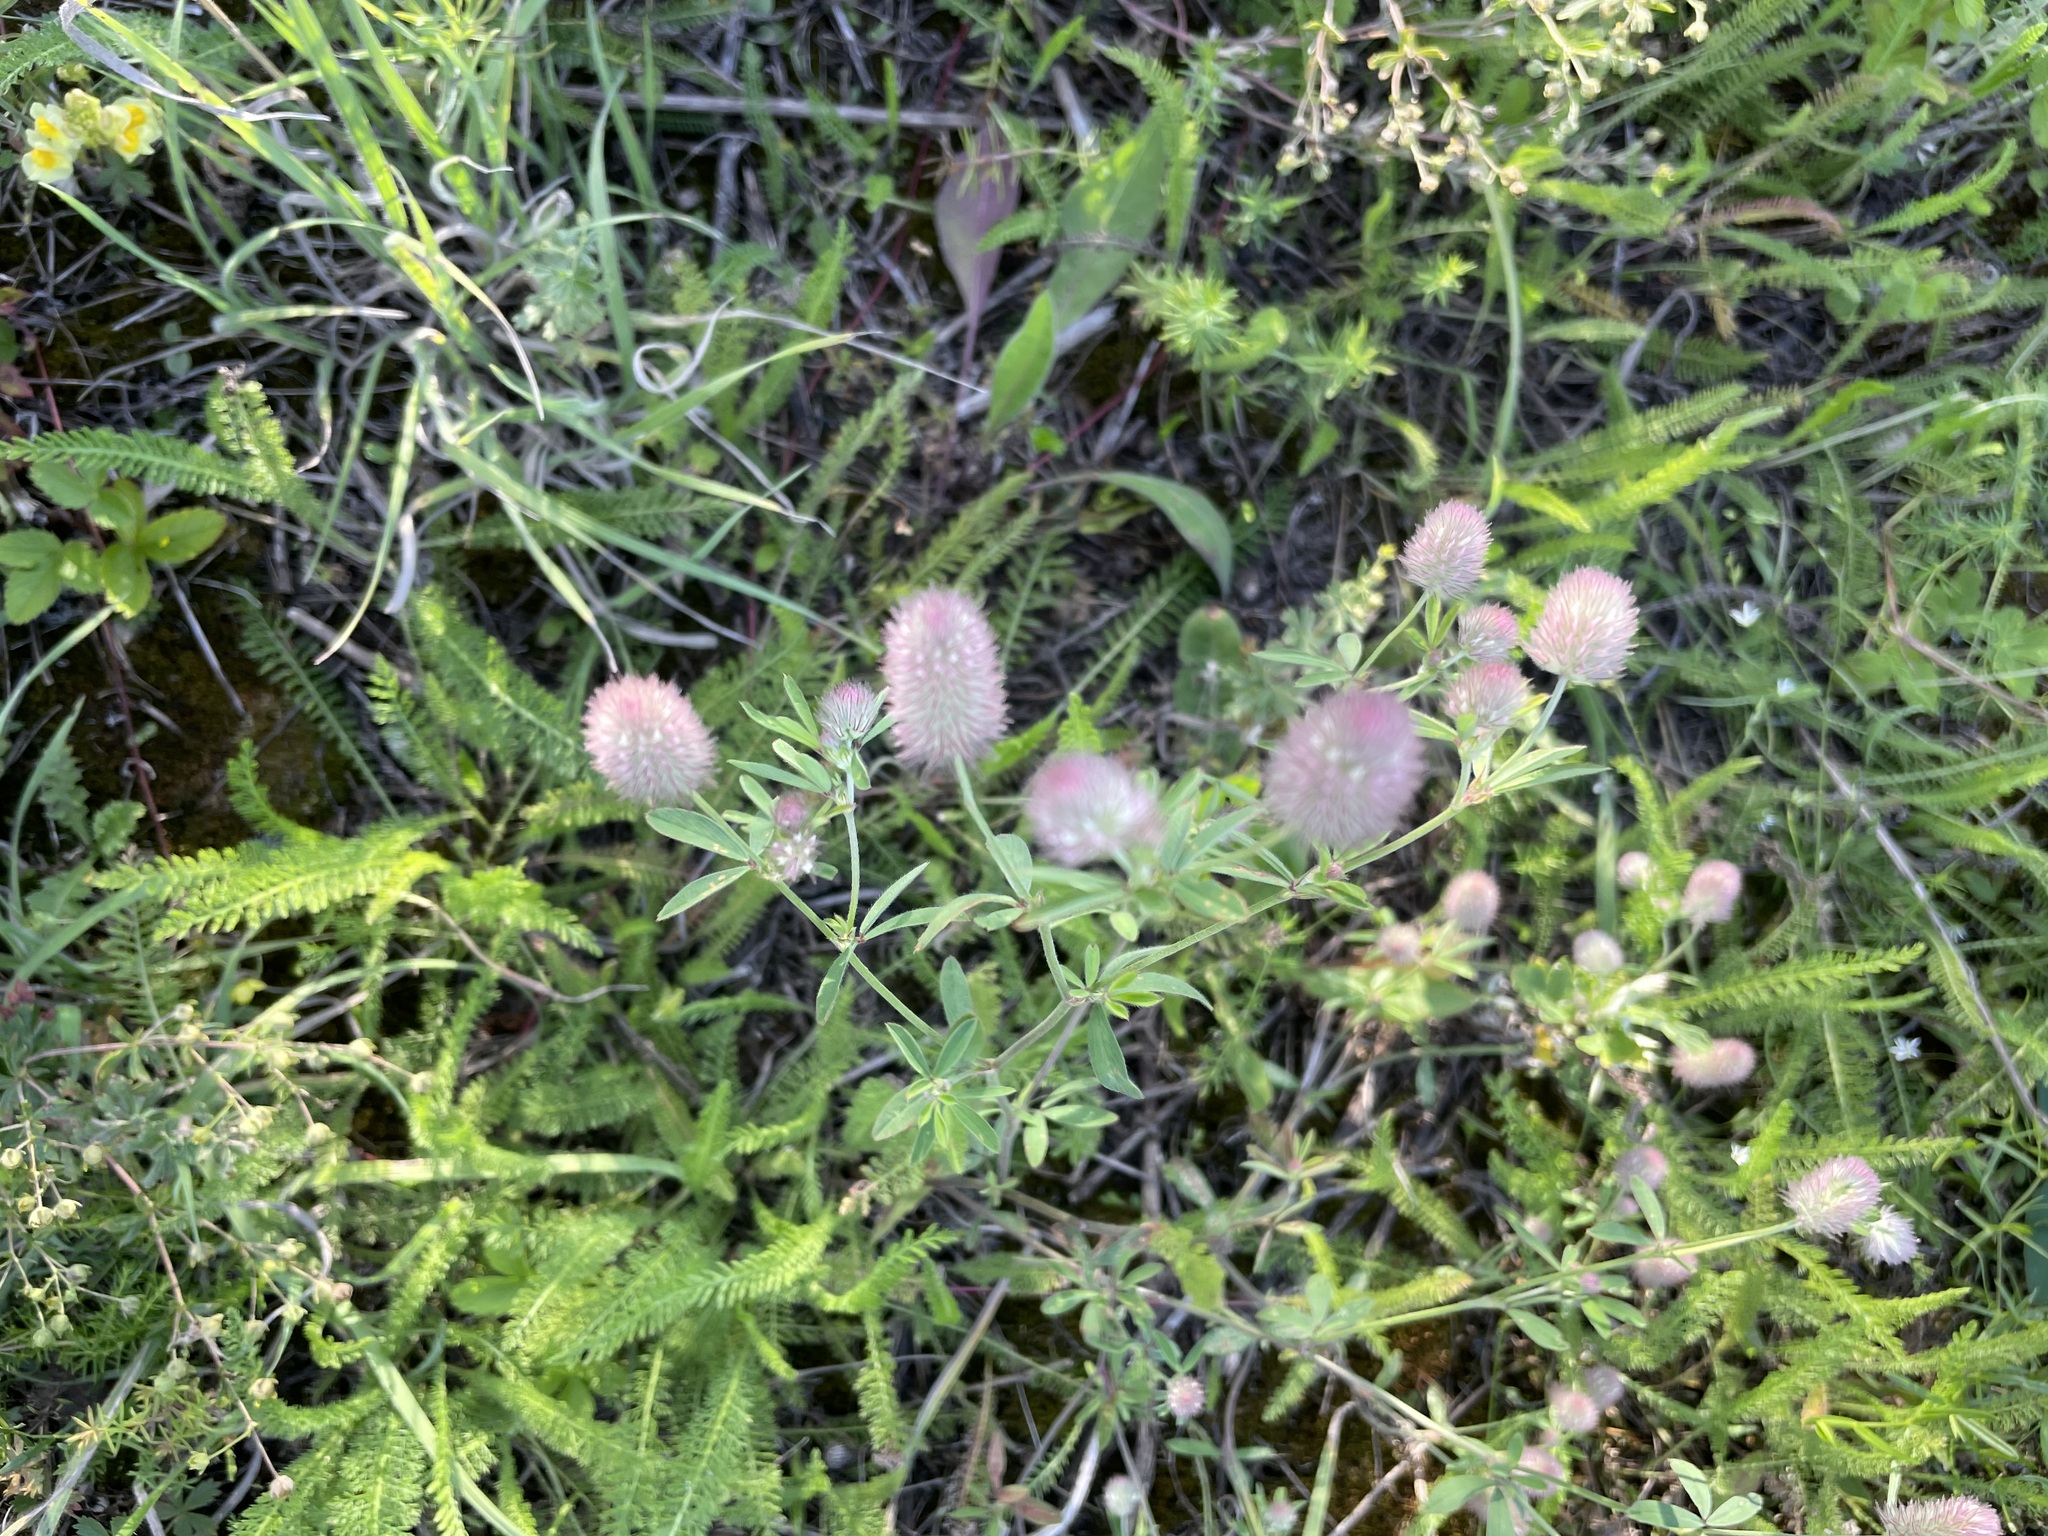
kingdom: Plantae
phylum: Tracheophyta
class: Magnoliopsida
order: Fabales
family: Fabaceae
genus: Trifolium
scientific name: Trifolium arvense
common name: Hare's-foot clover
